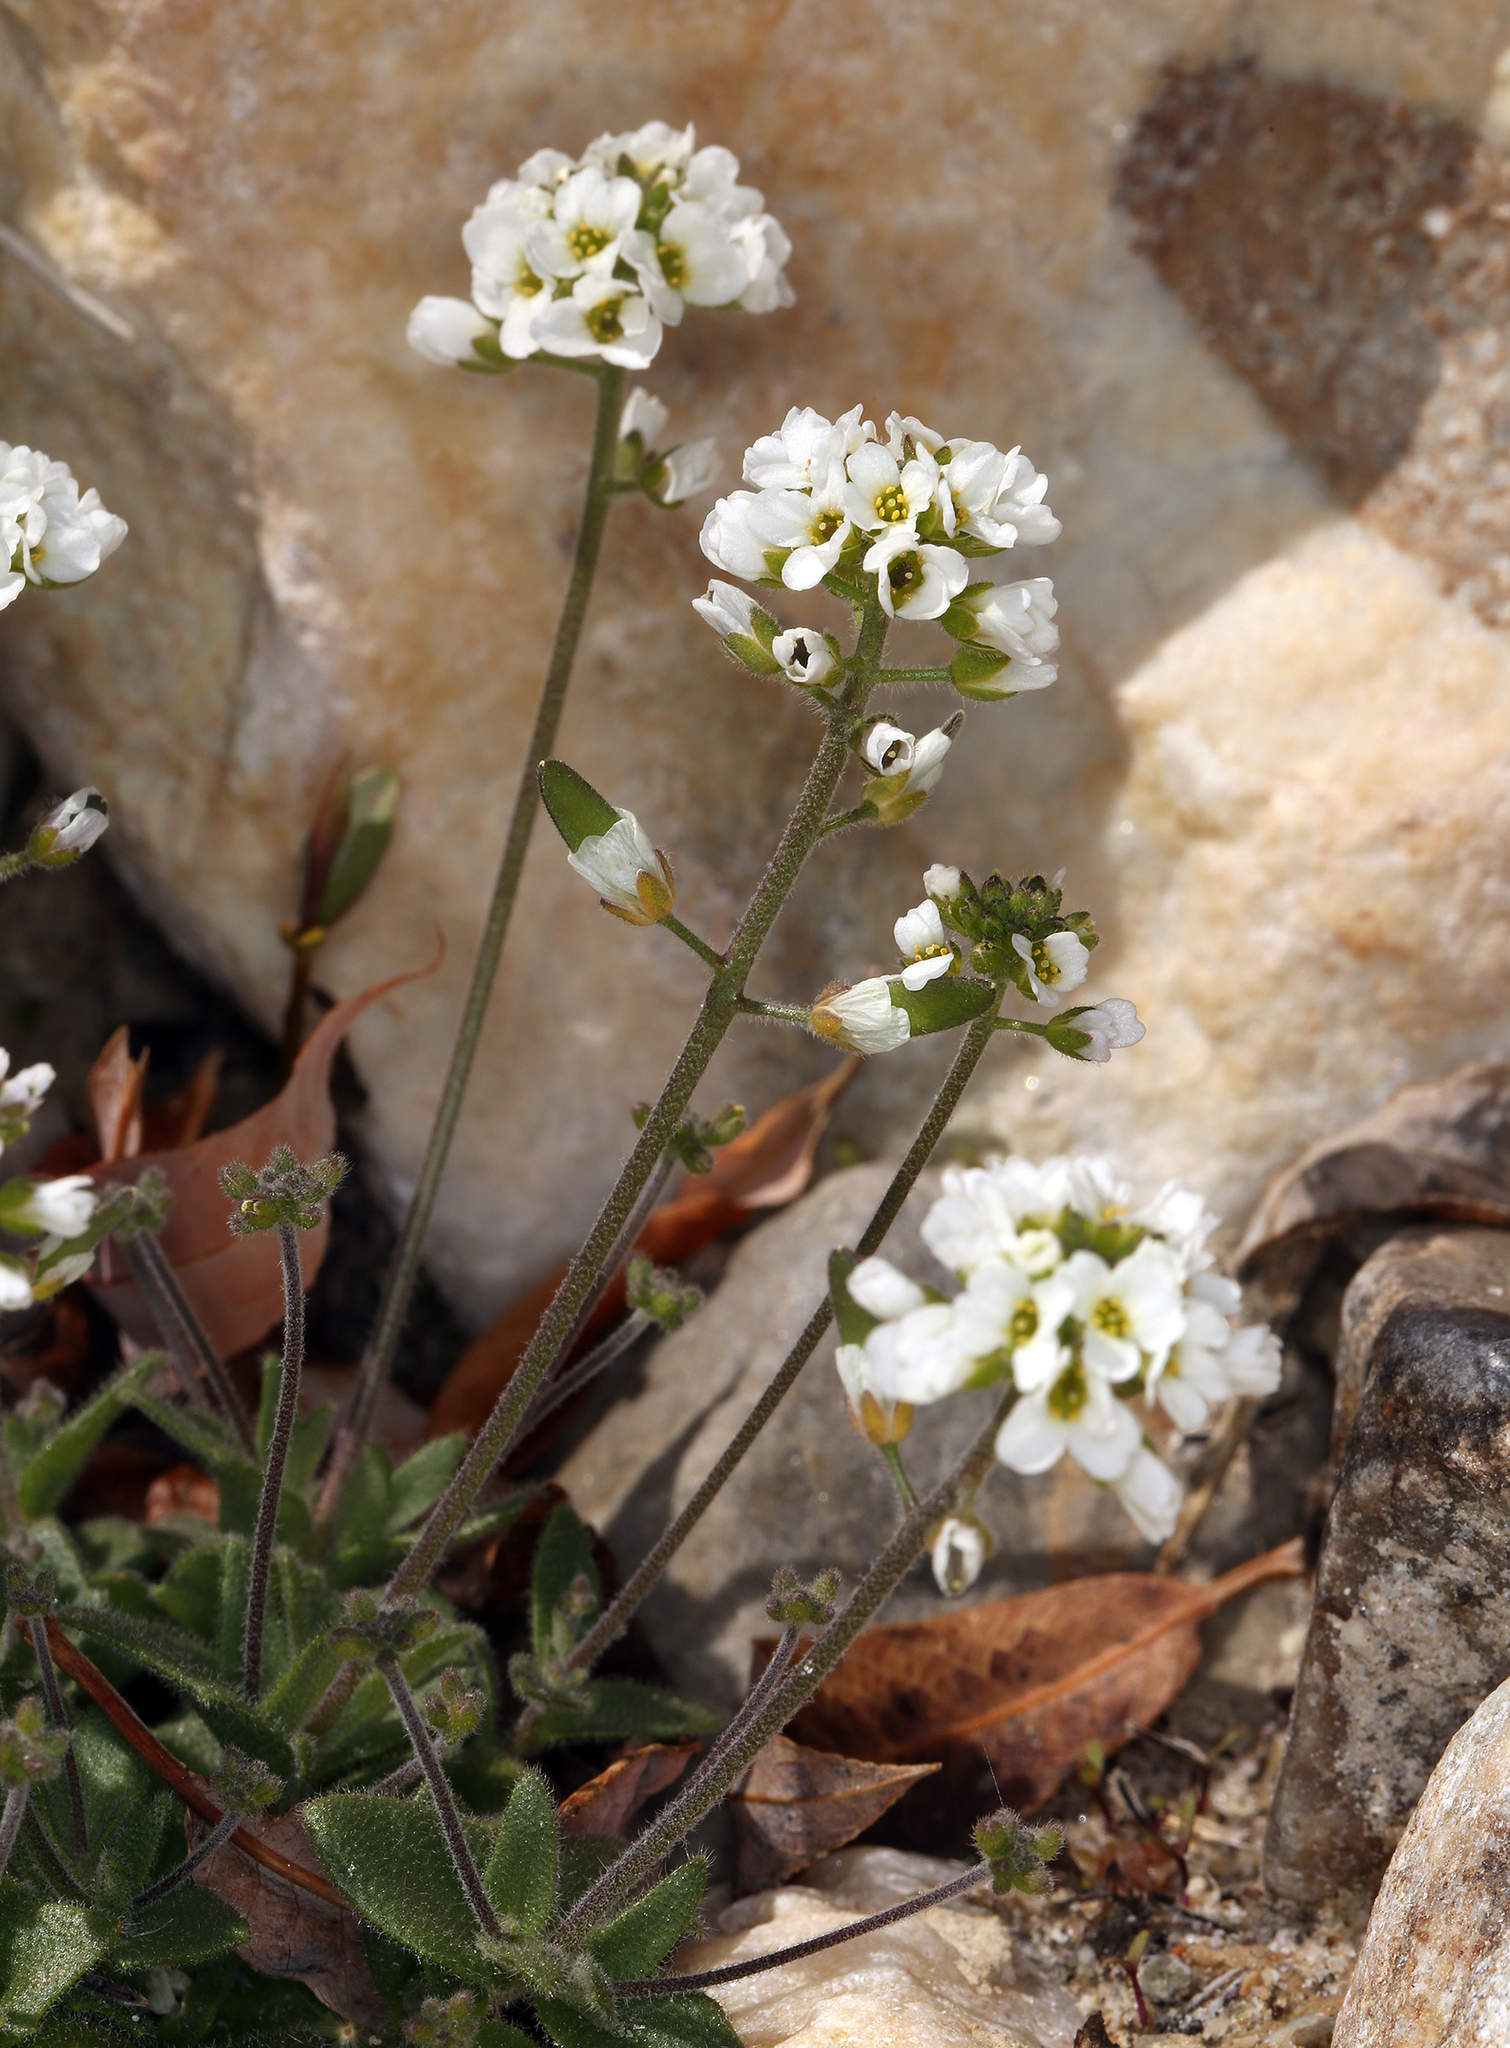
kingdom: Plantae
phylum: Tracheophyta
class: Magnoliopsida
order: Brassicales
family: Brassicaceae
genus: Tomostima
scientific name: Tomostima cuneifolia
